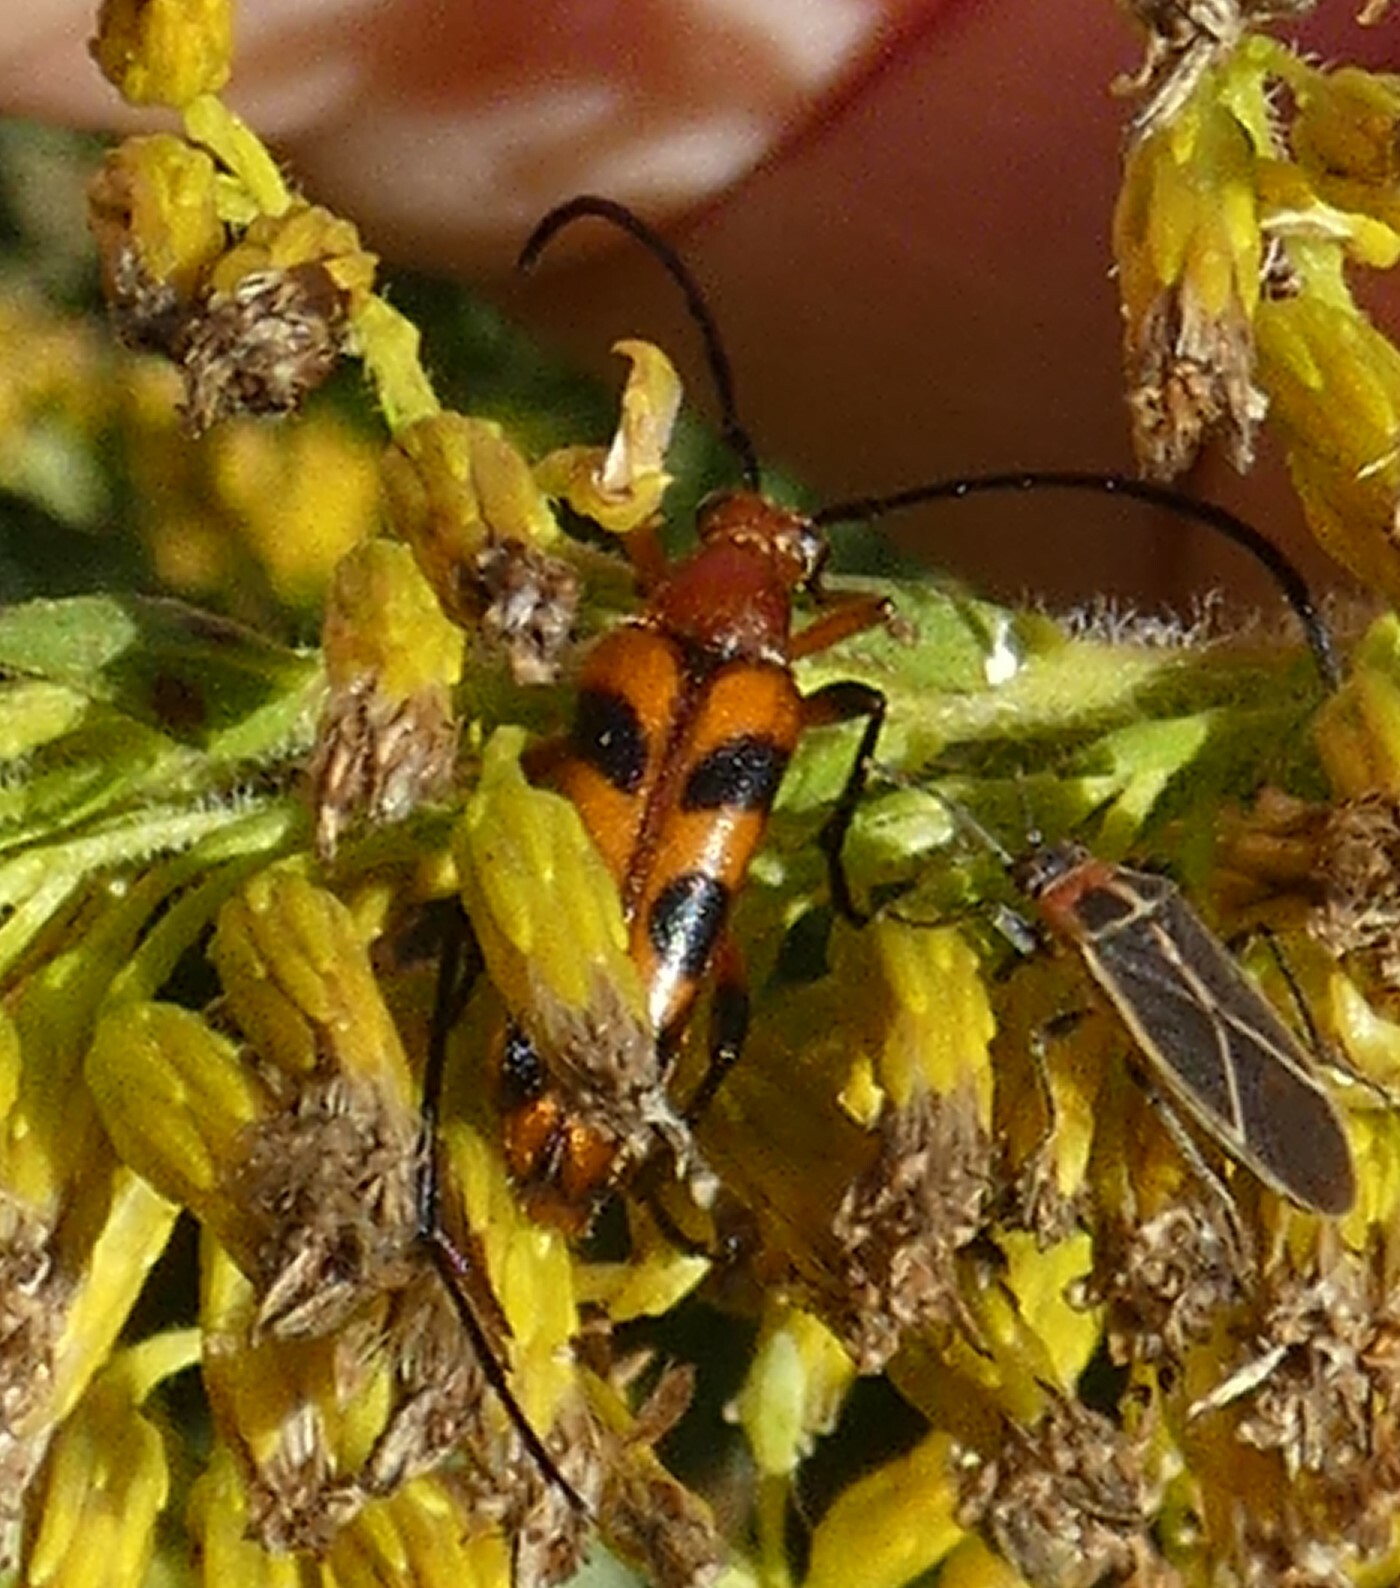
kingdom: Animalia
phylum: Arthropoda
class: Insecta
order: Coleoptera
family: Cerambycidae
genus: Strangalia
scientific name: Strangalia sexnotata
